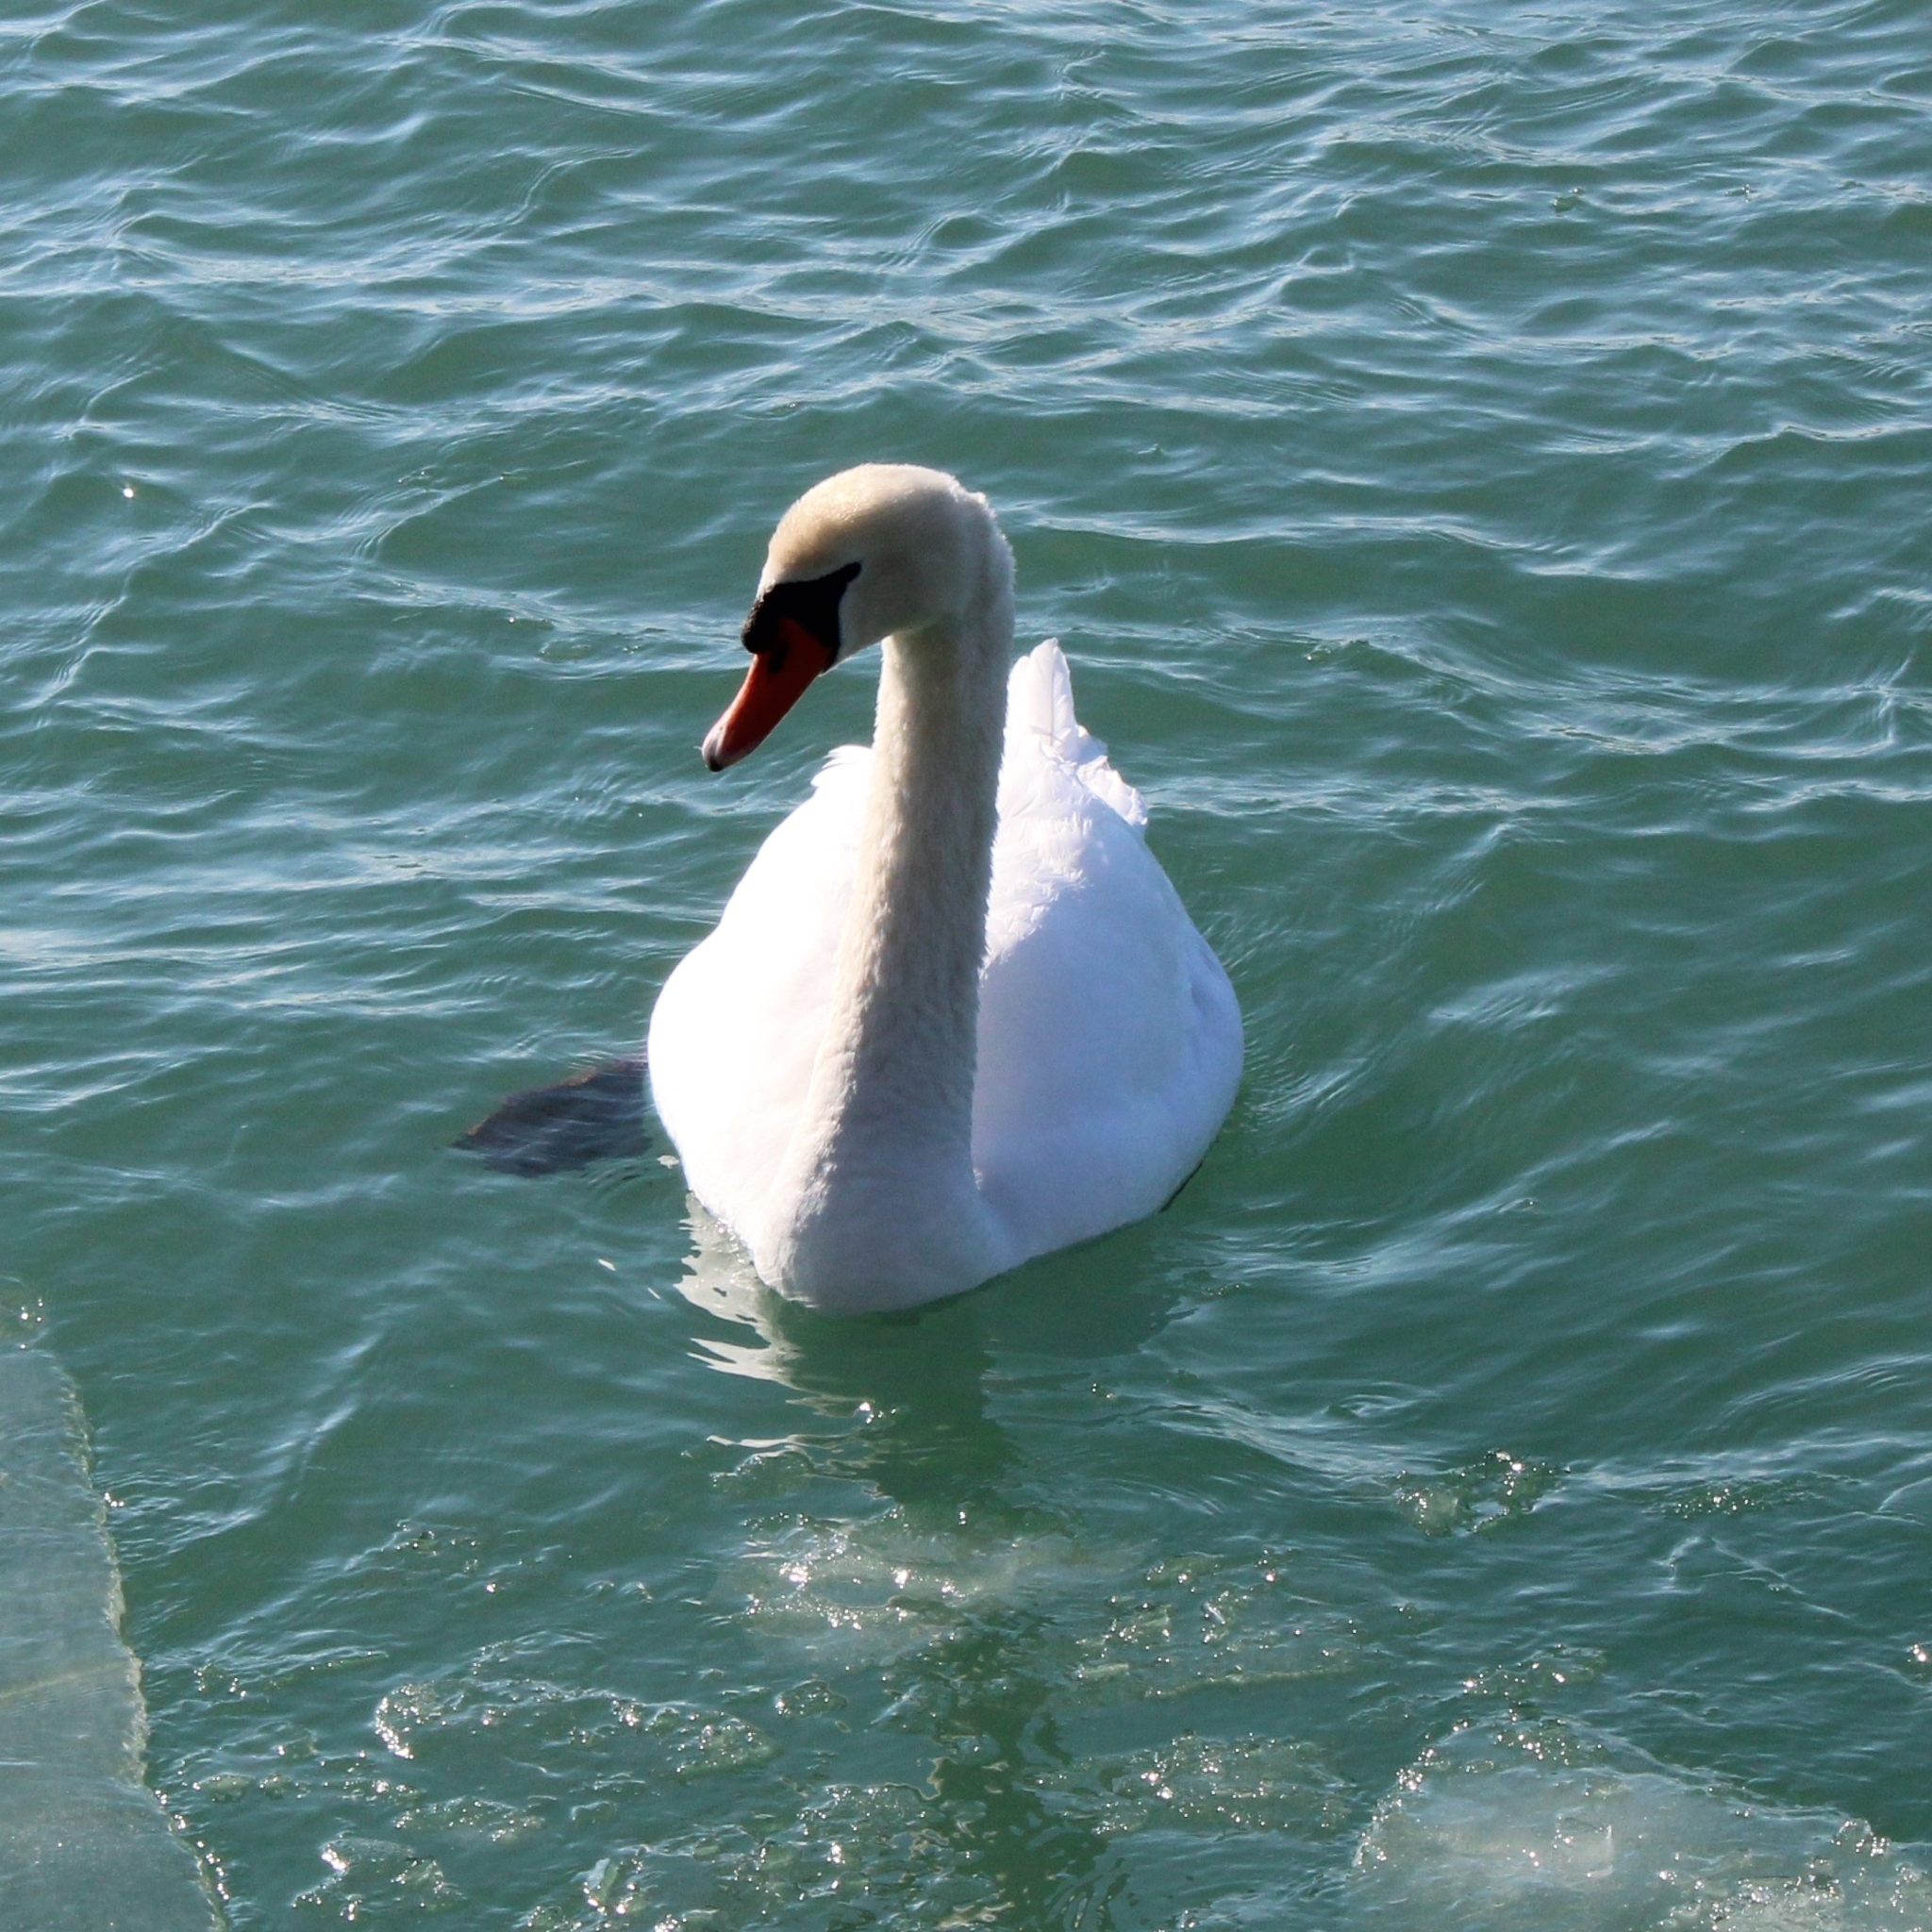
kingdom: Animalia
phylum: Chordata
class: Aves
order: Anseriformes
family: Anatidae
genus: Cygnus
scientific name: Cygnus olor
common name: Mute swan
